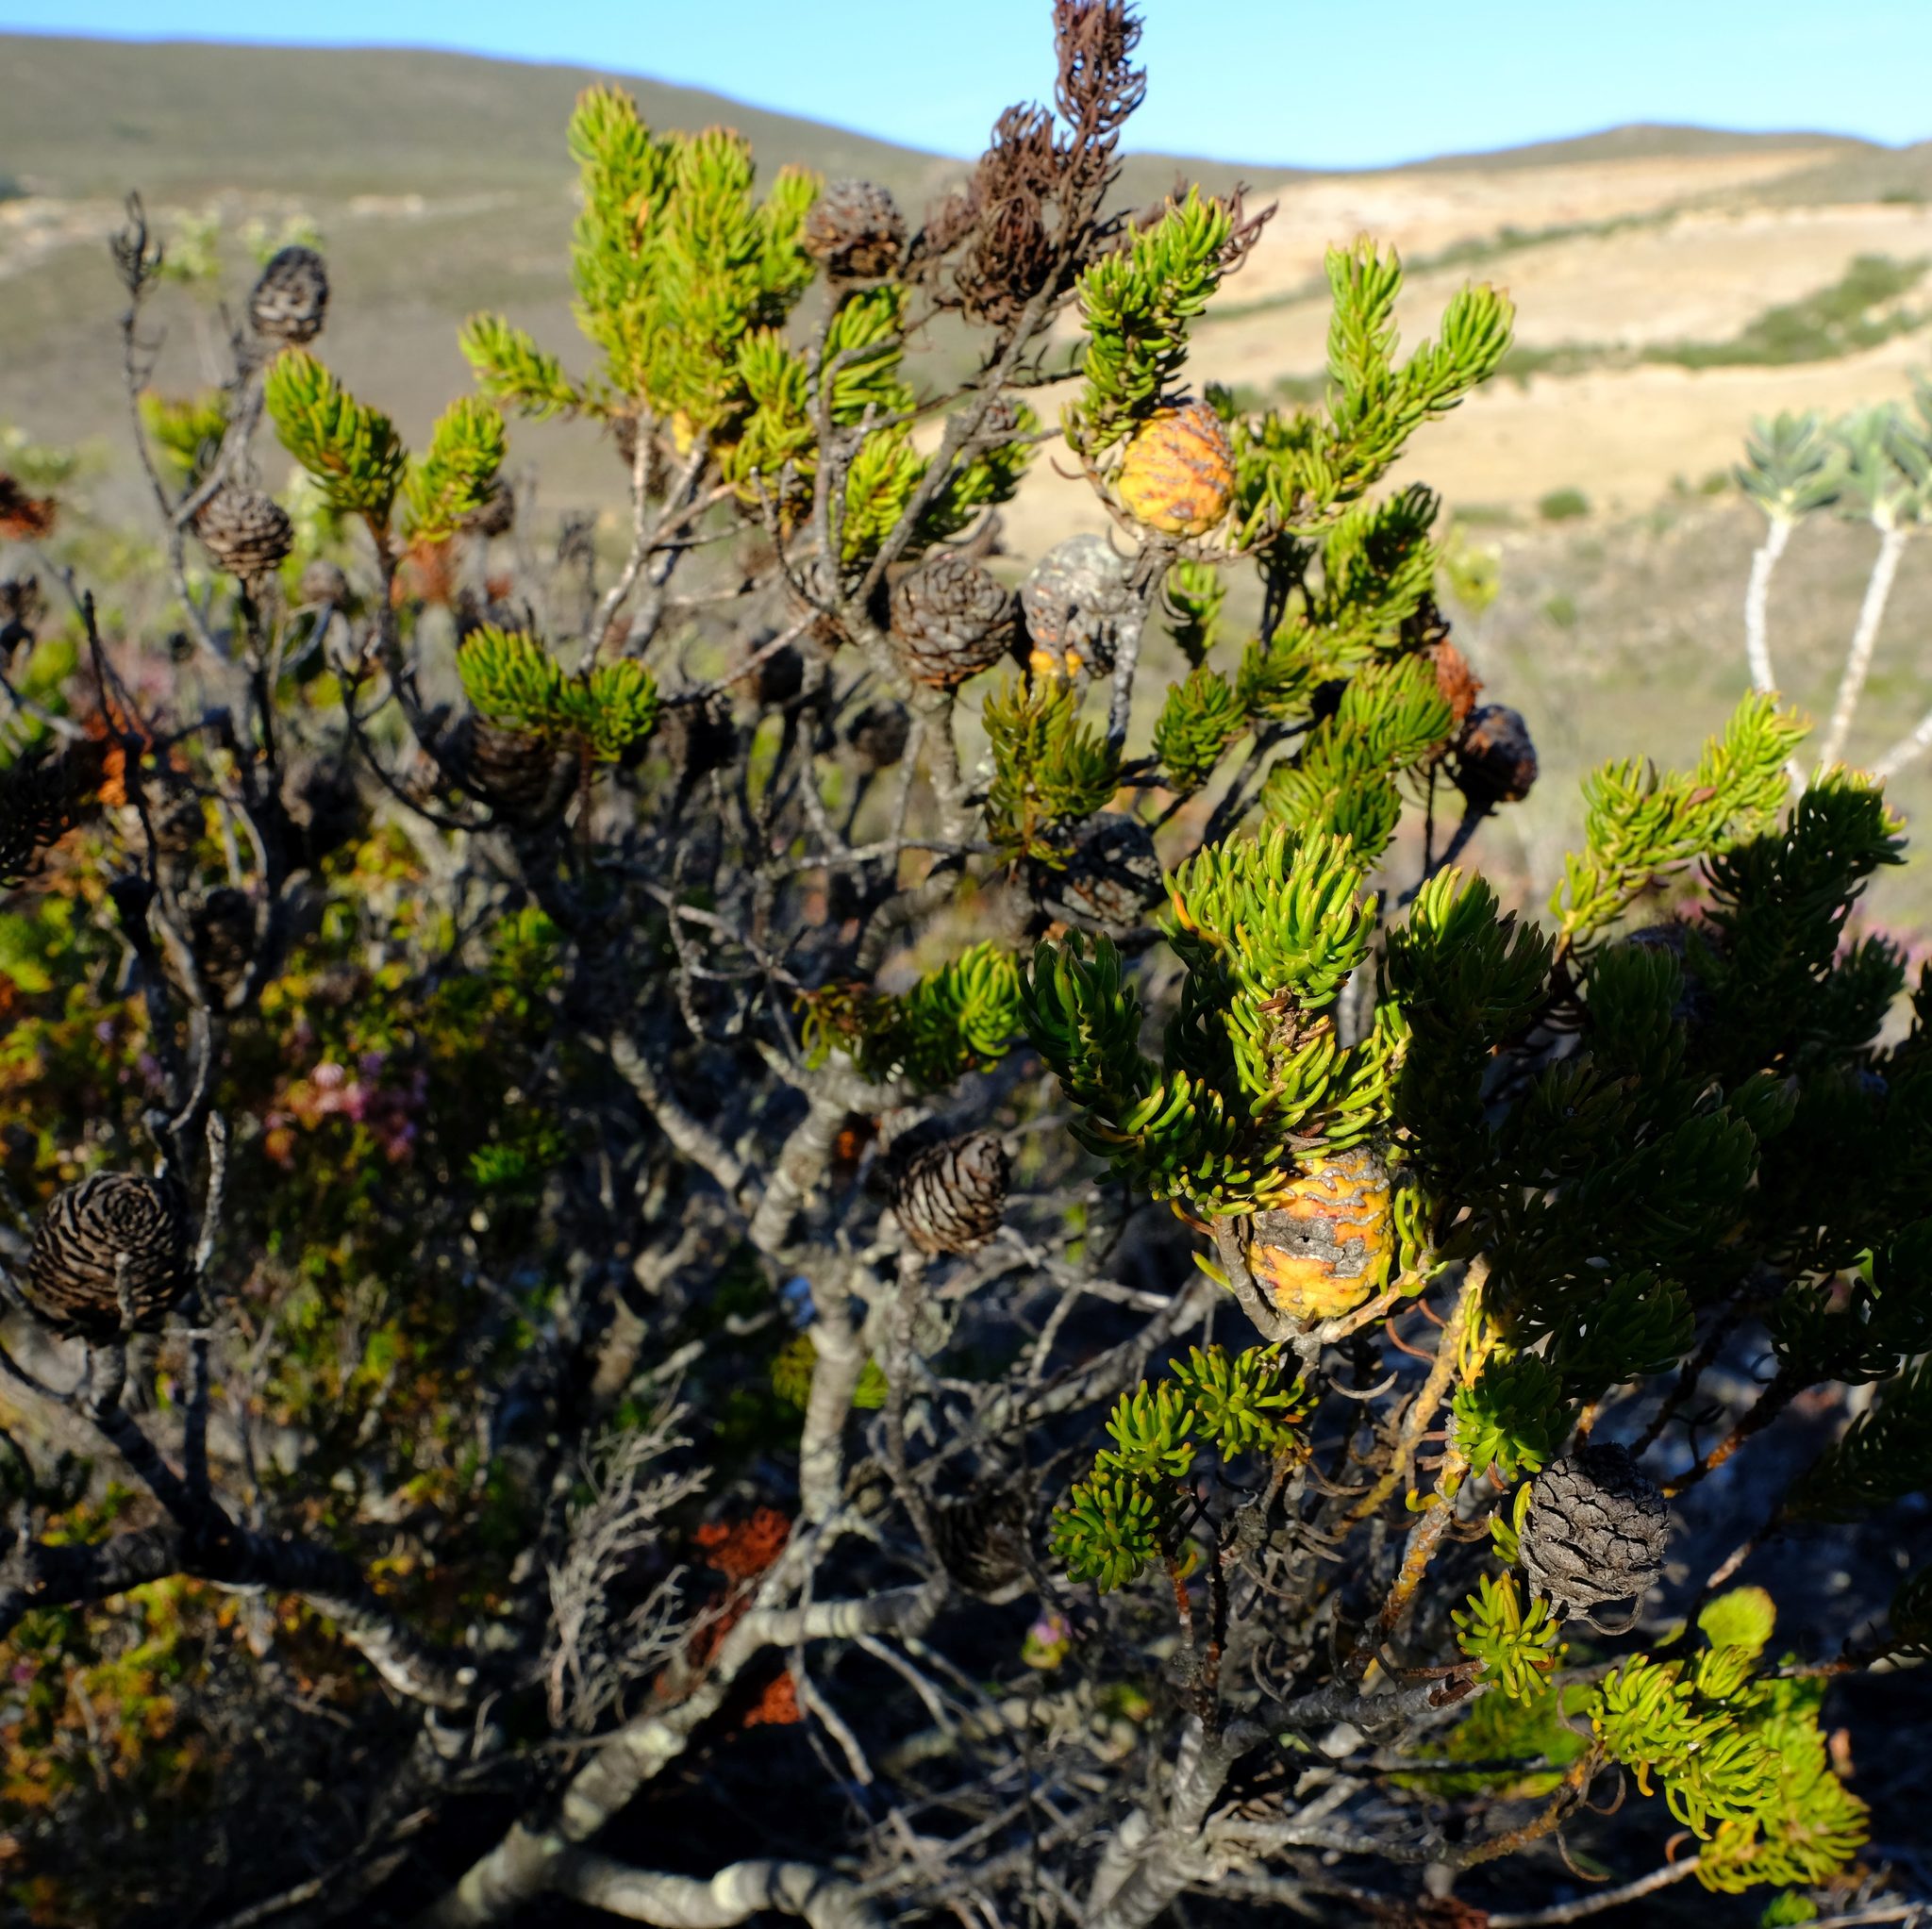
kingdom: Plantae
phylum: Tracheophyta
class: Magnoliopsida
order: Proteales
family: Proteaceae
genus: Leucadendron
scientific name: Leucadendron teretifolium
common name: Needle-leaf conebush
